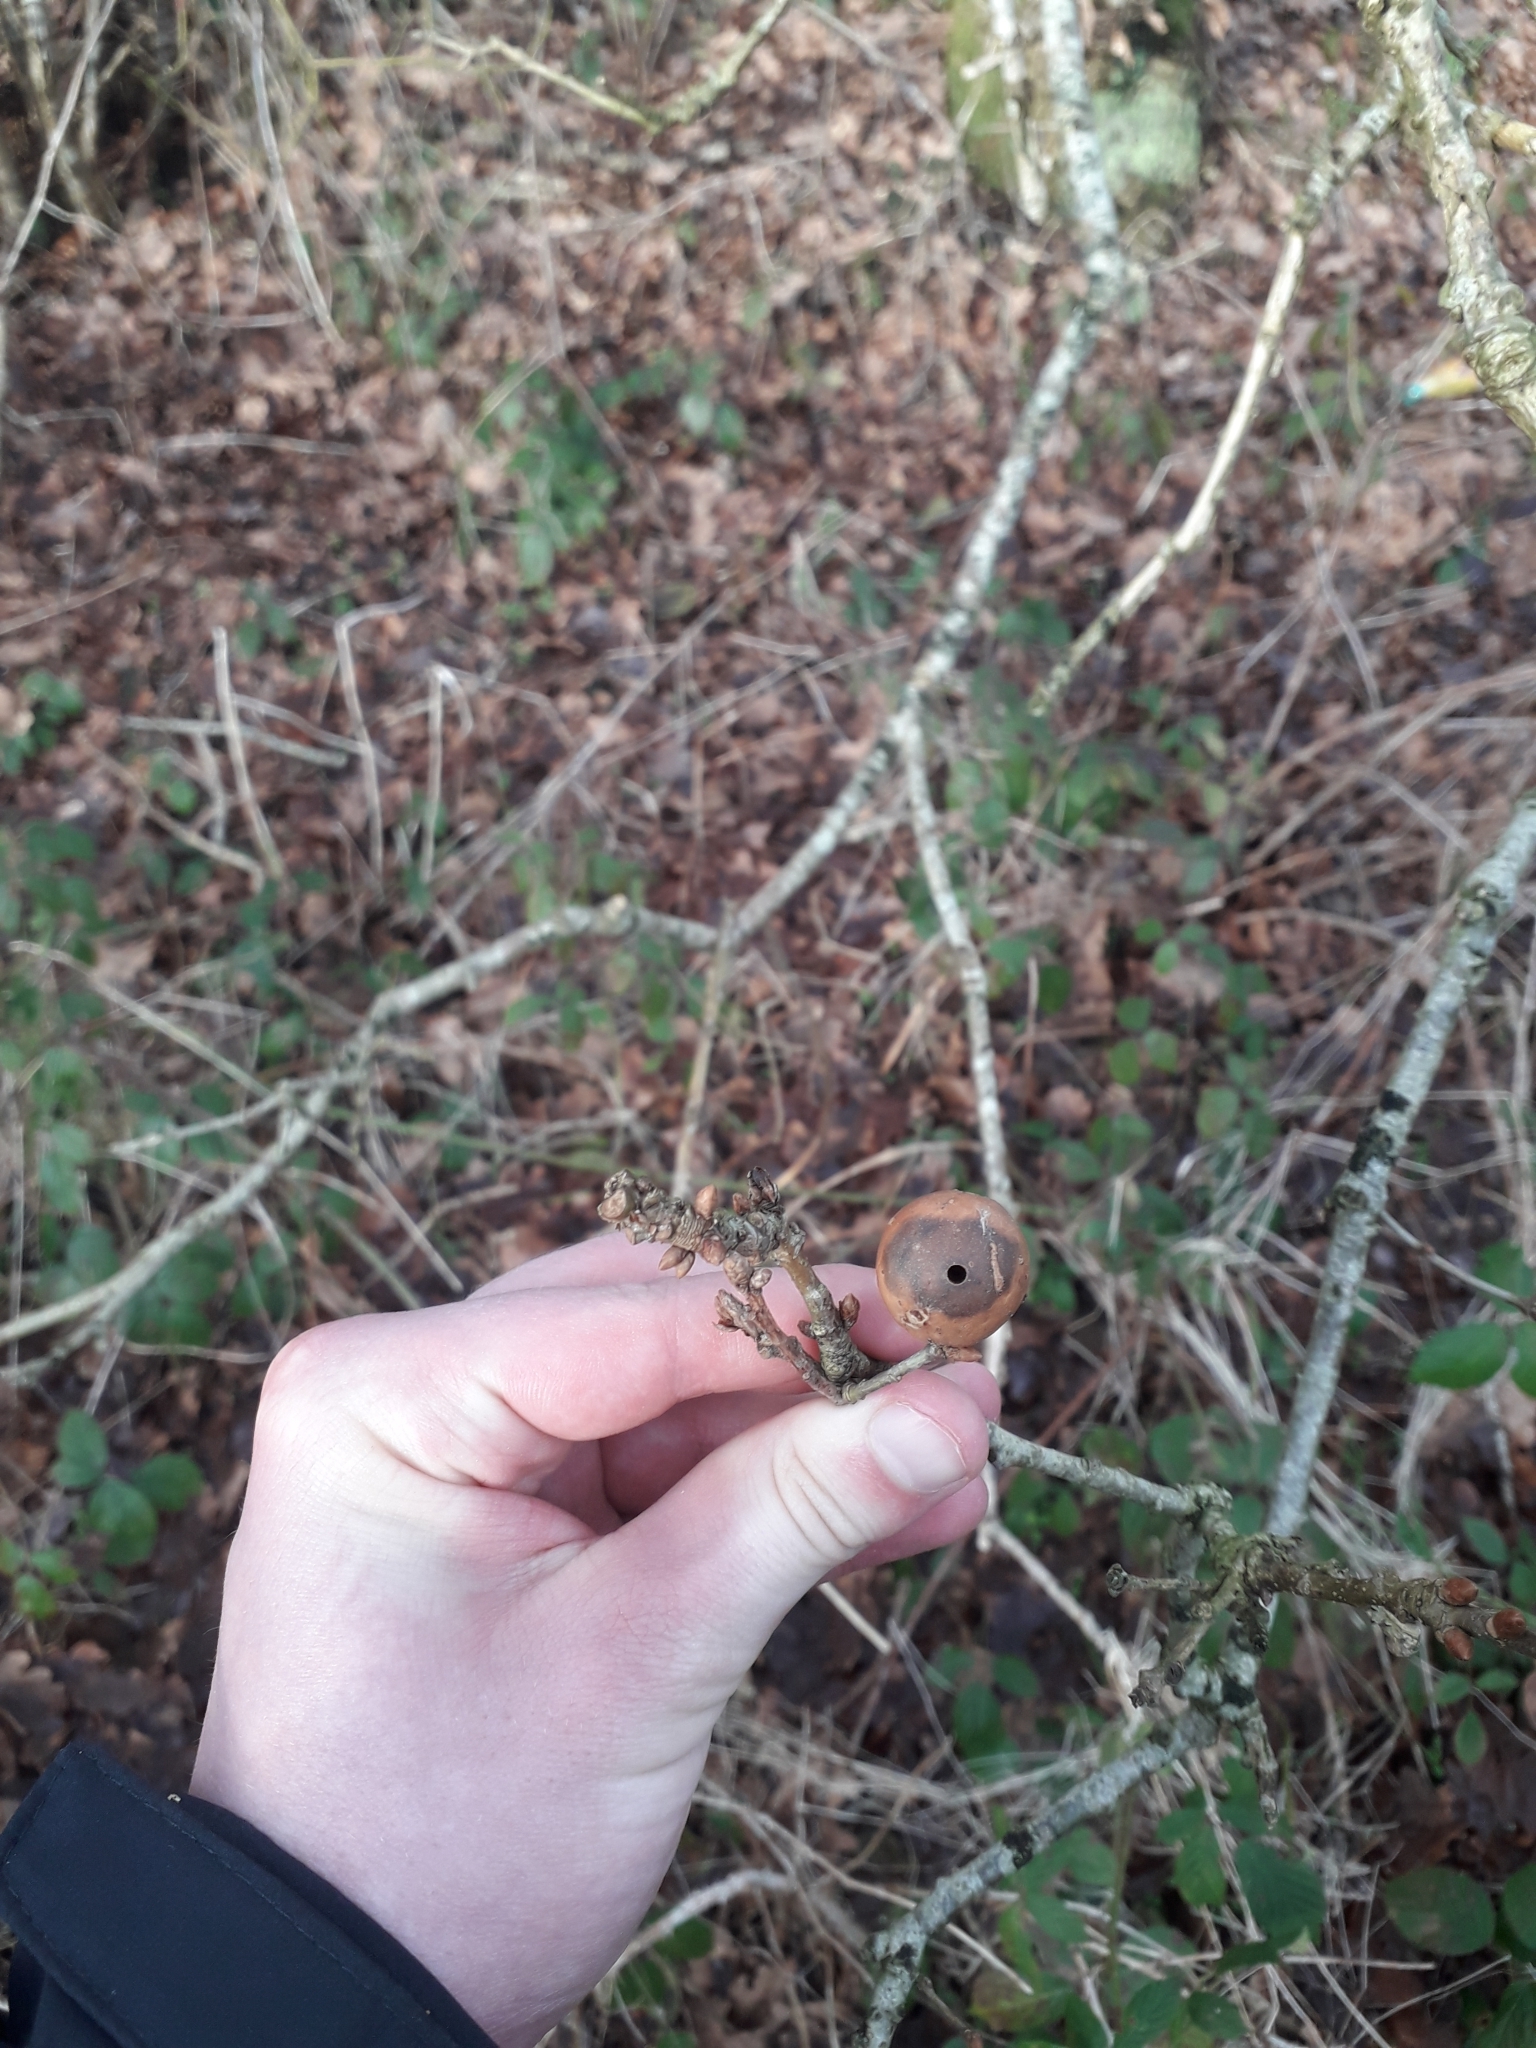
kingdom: Animalia
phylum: Arthropoda
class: Insecta
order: Hymenoptera
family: Cynipidae
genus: Andricus
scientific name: Andricus kollari
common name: Marble gall
